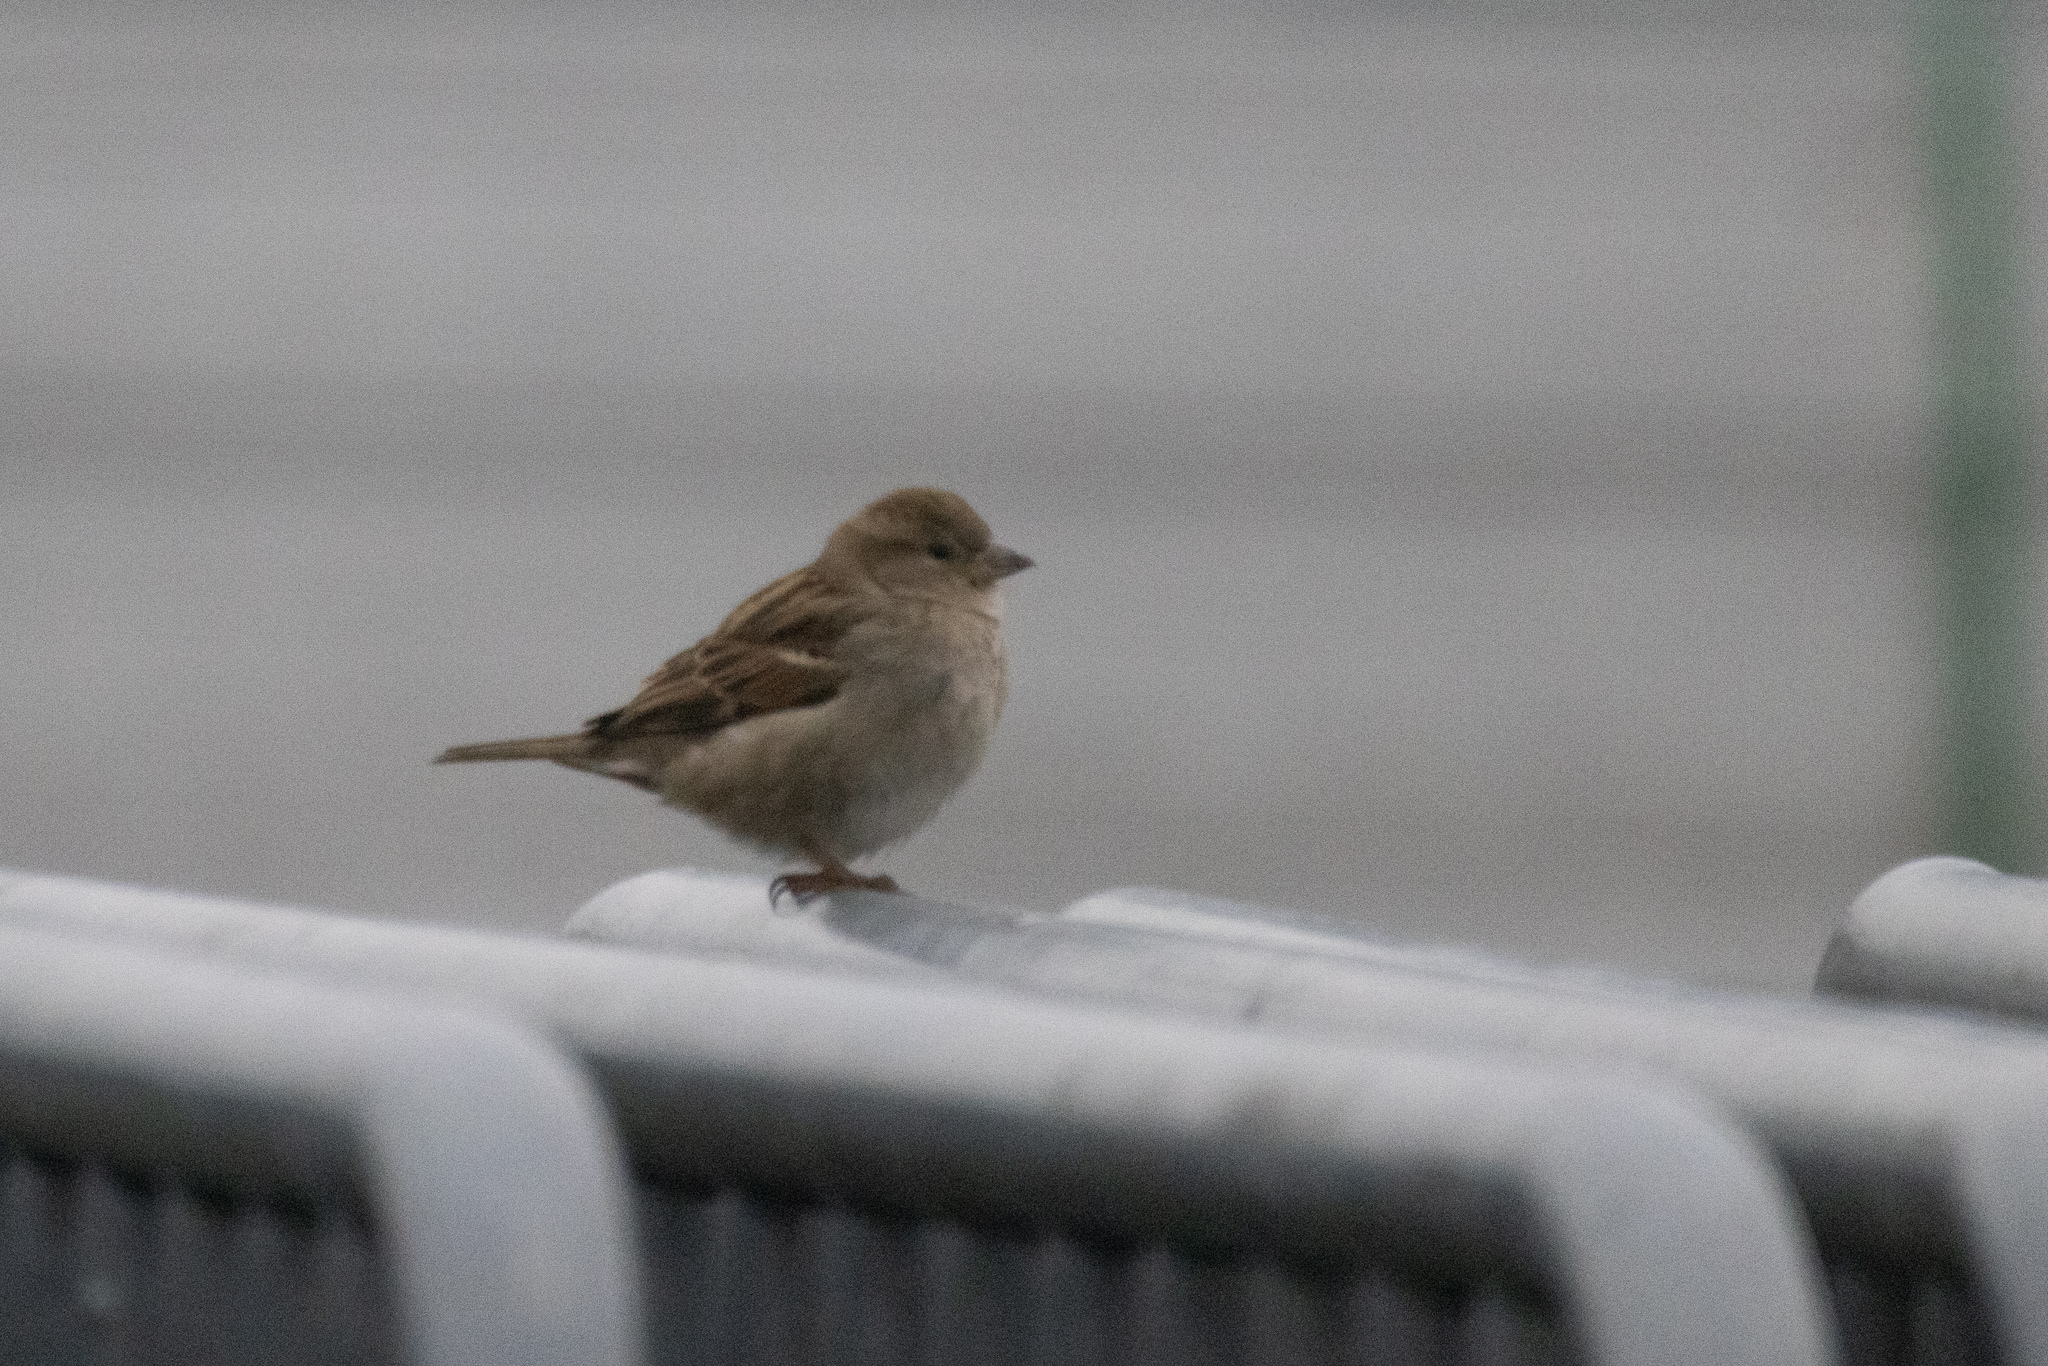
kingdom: Animalia
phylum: Chordata
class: Aves
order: Passeriformes
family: Passeridae
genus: Passer
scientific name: Passer domesticus
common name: House sparrow
